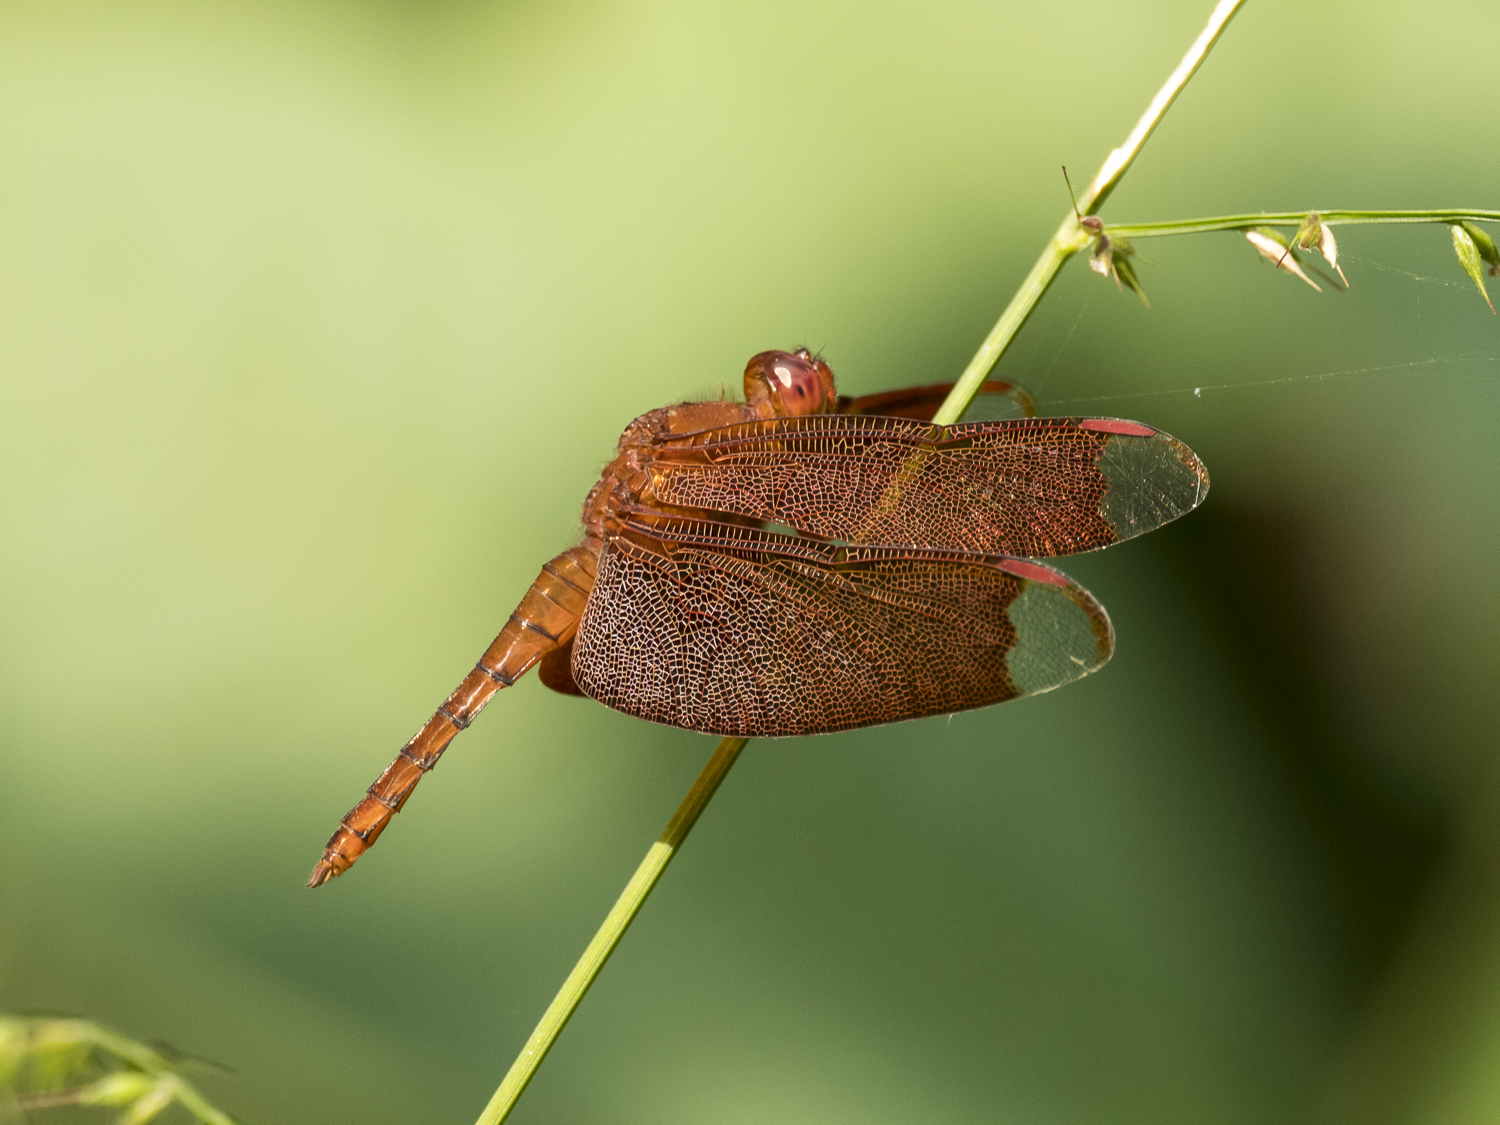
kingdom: Animalia
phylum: Arthropoda
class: Insecta
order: Odonata
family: Libellulidae
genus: Neurothemis
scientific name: Neurothemis fulvia
